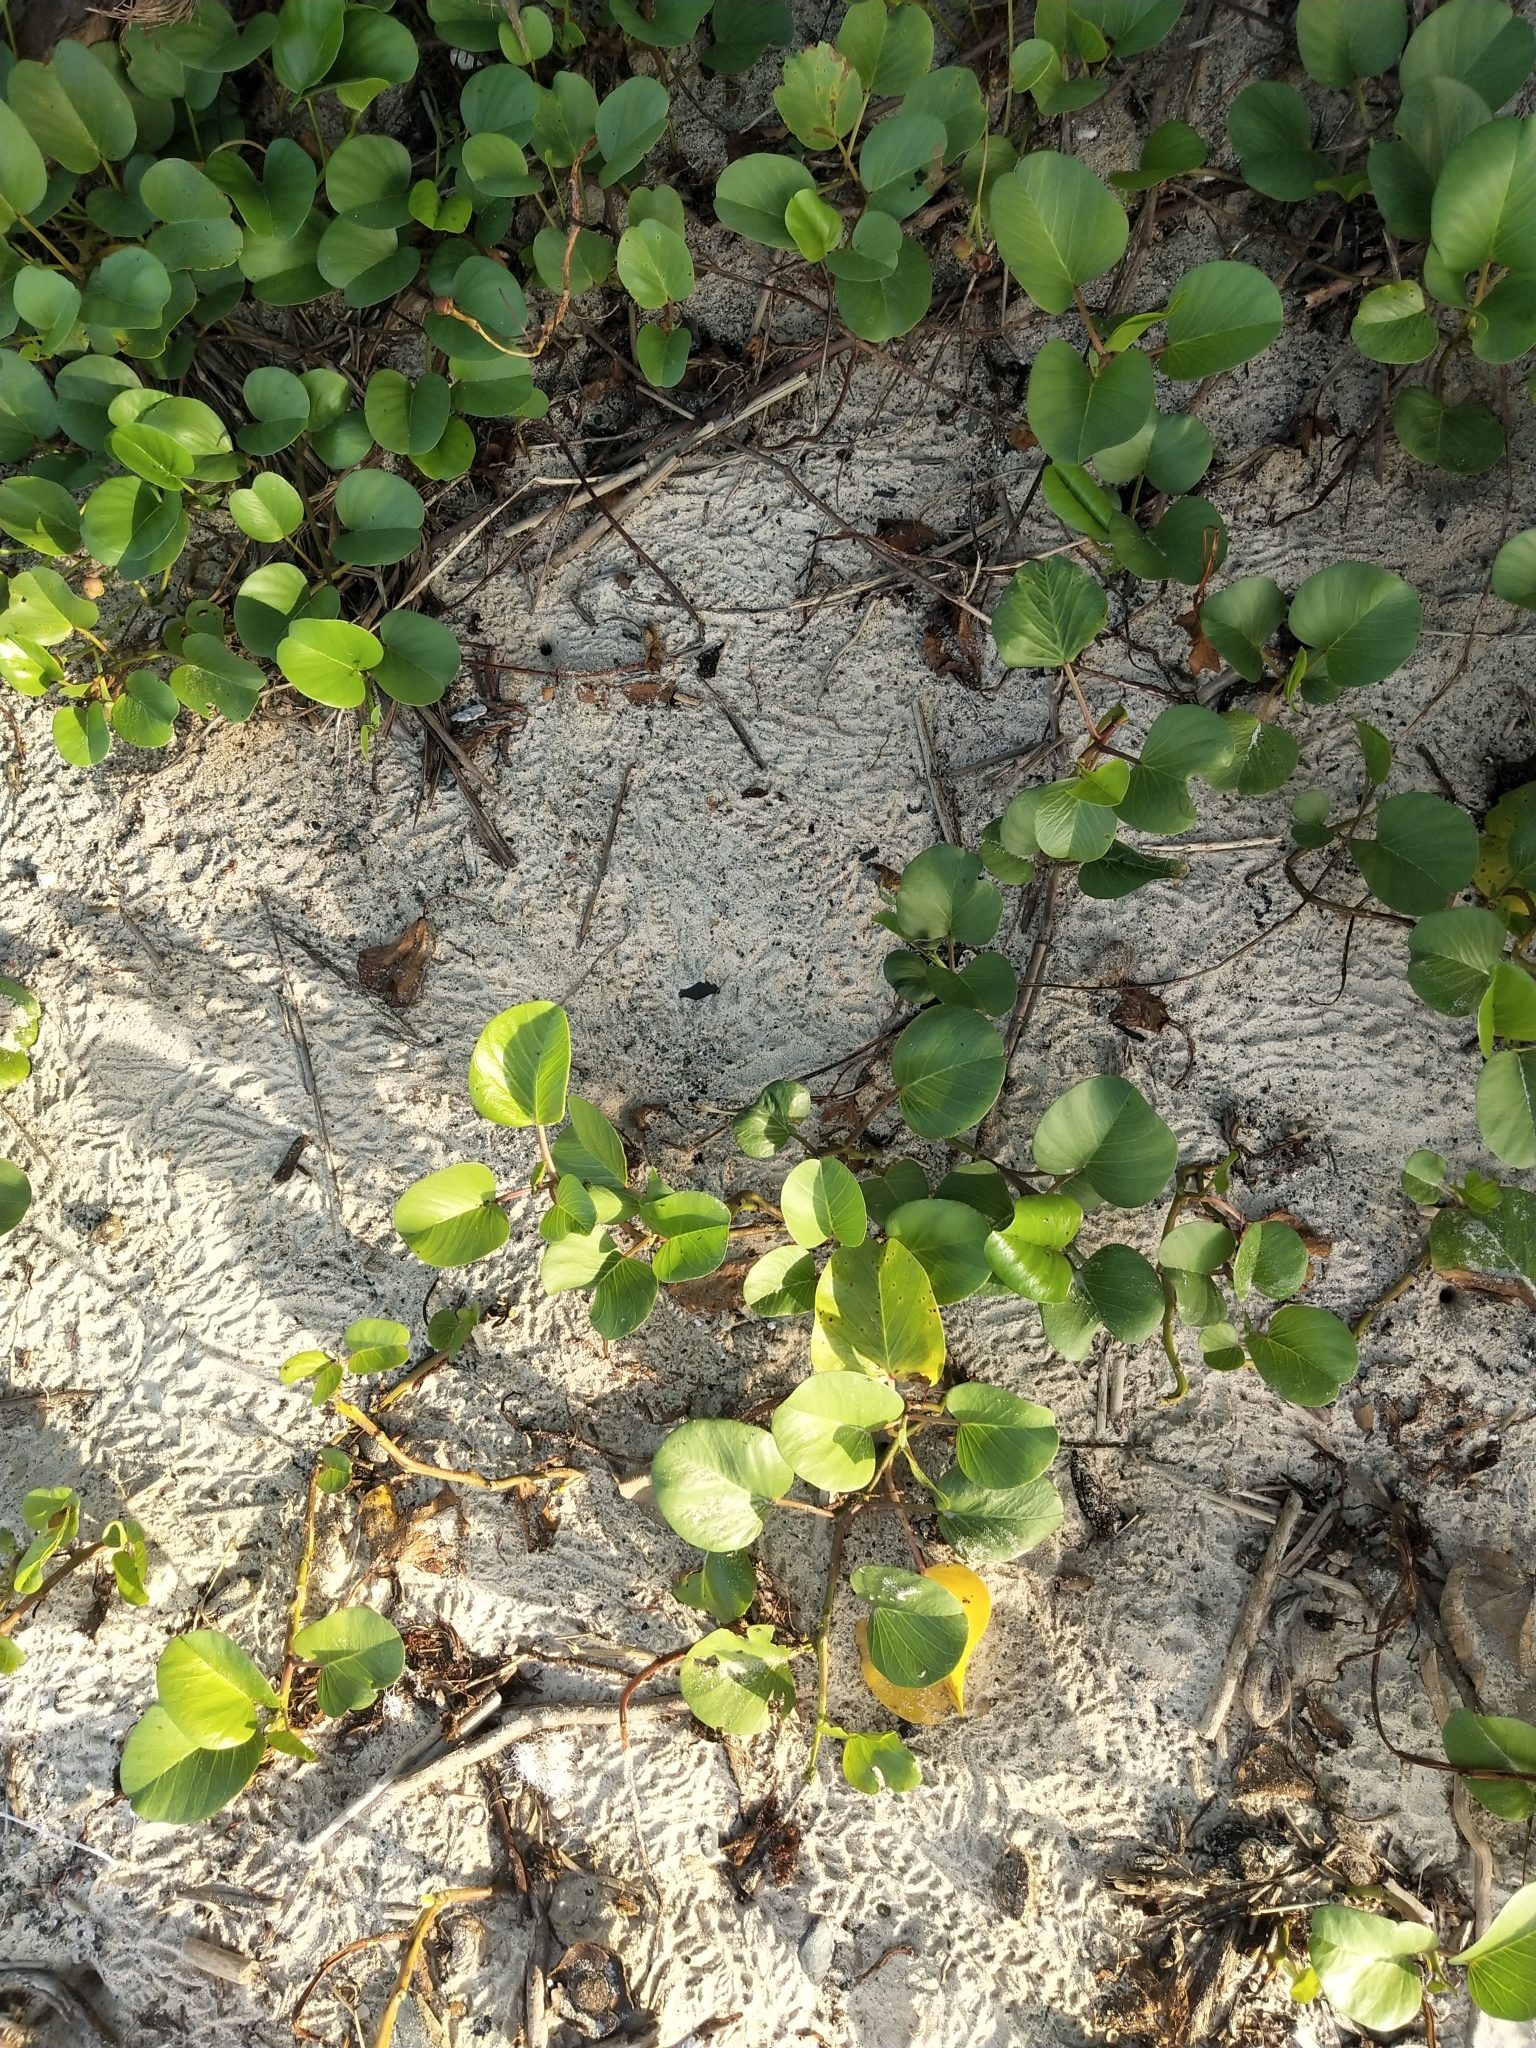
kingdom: Plantae
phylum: Tracheophyta
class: Magnoliopsida
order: Solanales
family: Convolvulaceae
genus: Ipomoea
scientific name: Ipomoea pes-caprae
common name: Beach morning glory
